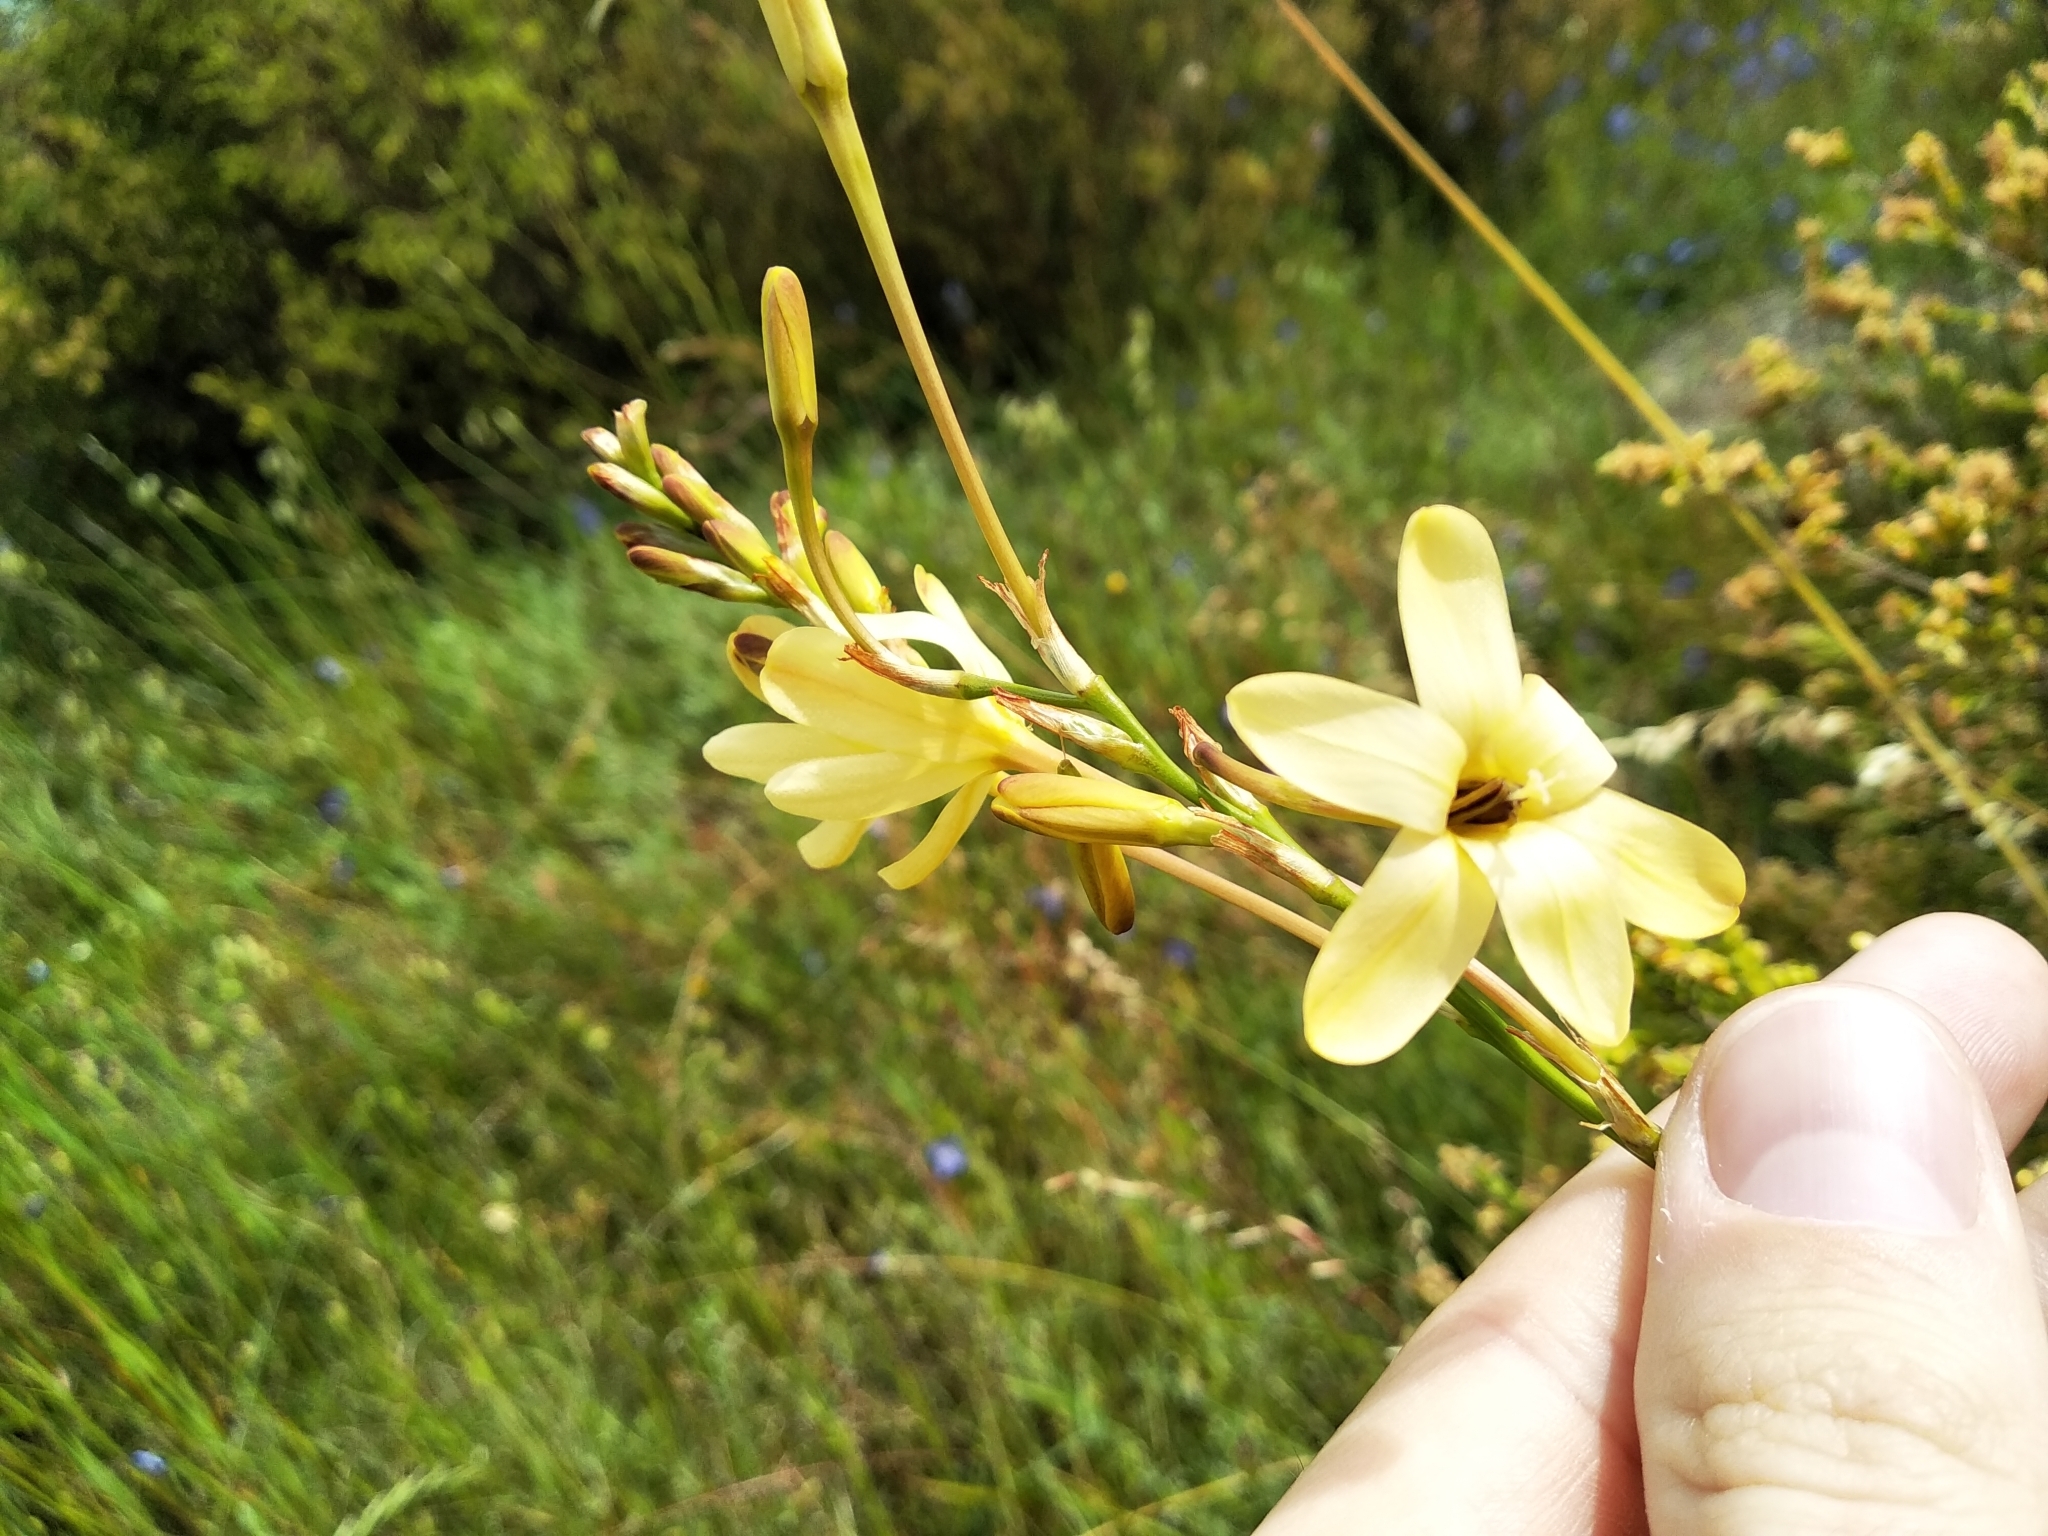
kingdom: Plantae
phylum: Tracheophyta
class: Liliopsida
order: Asparagales
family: Iridaceae
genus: Ixia
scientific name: Ixia paniculata
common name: Tubular corn-lily
